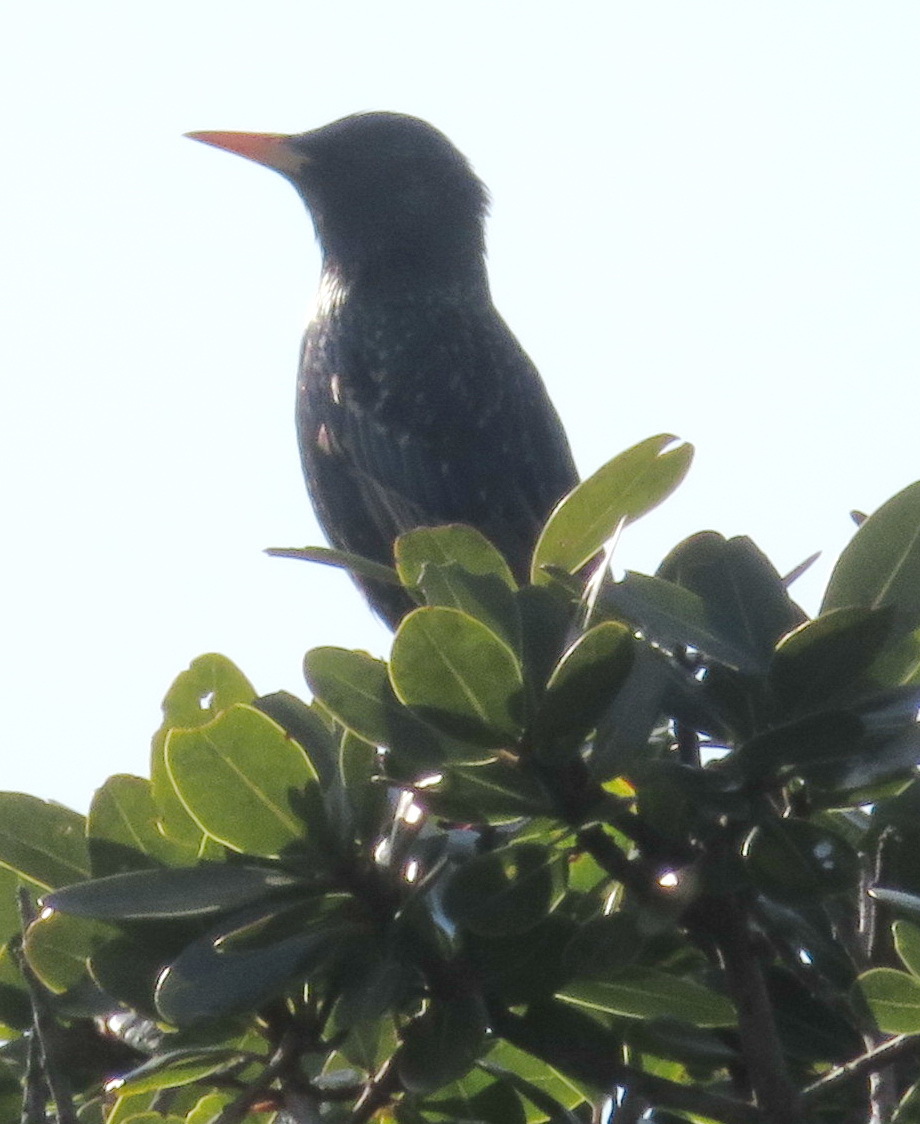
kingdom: Animalia
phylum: Chordata
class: Aves
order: Passeriformes
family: Sturnidae
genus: Sturnus
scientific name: Sturnus vulgaris
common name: Common starling
